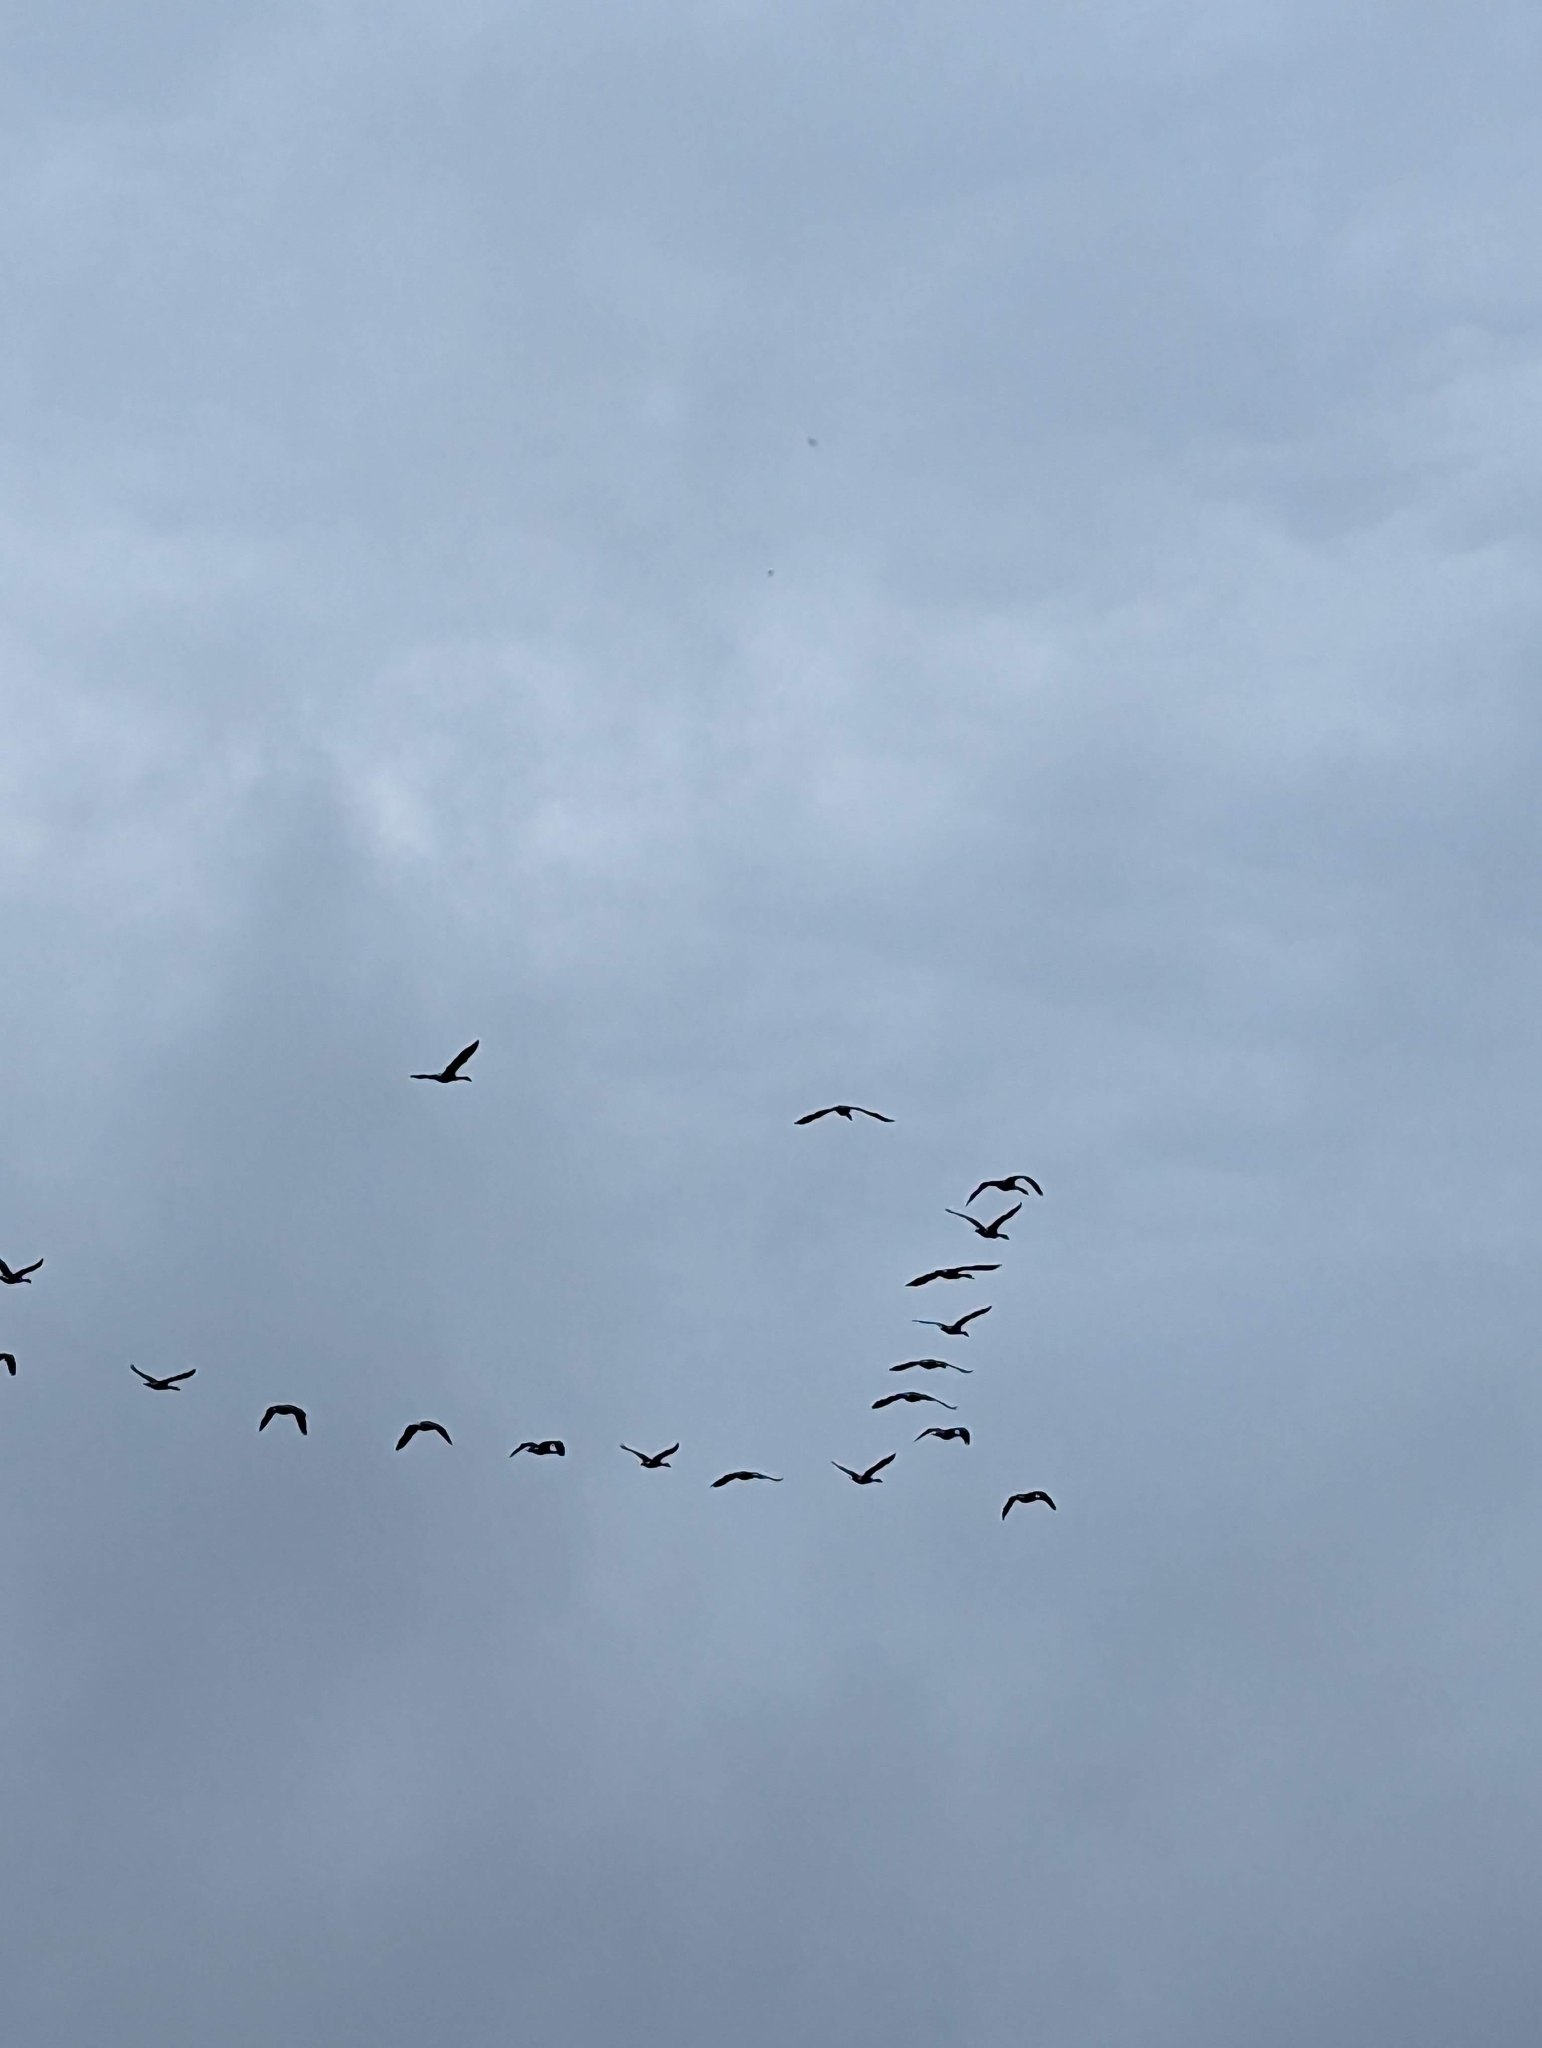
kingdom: Animalia
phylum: Chordata
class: Aves
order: Anseriformes
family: Anatidae
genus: Branta
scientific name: Branta canadensis
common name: Canada goose
